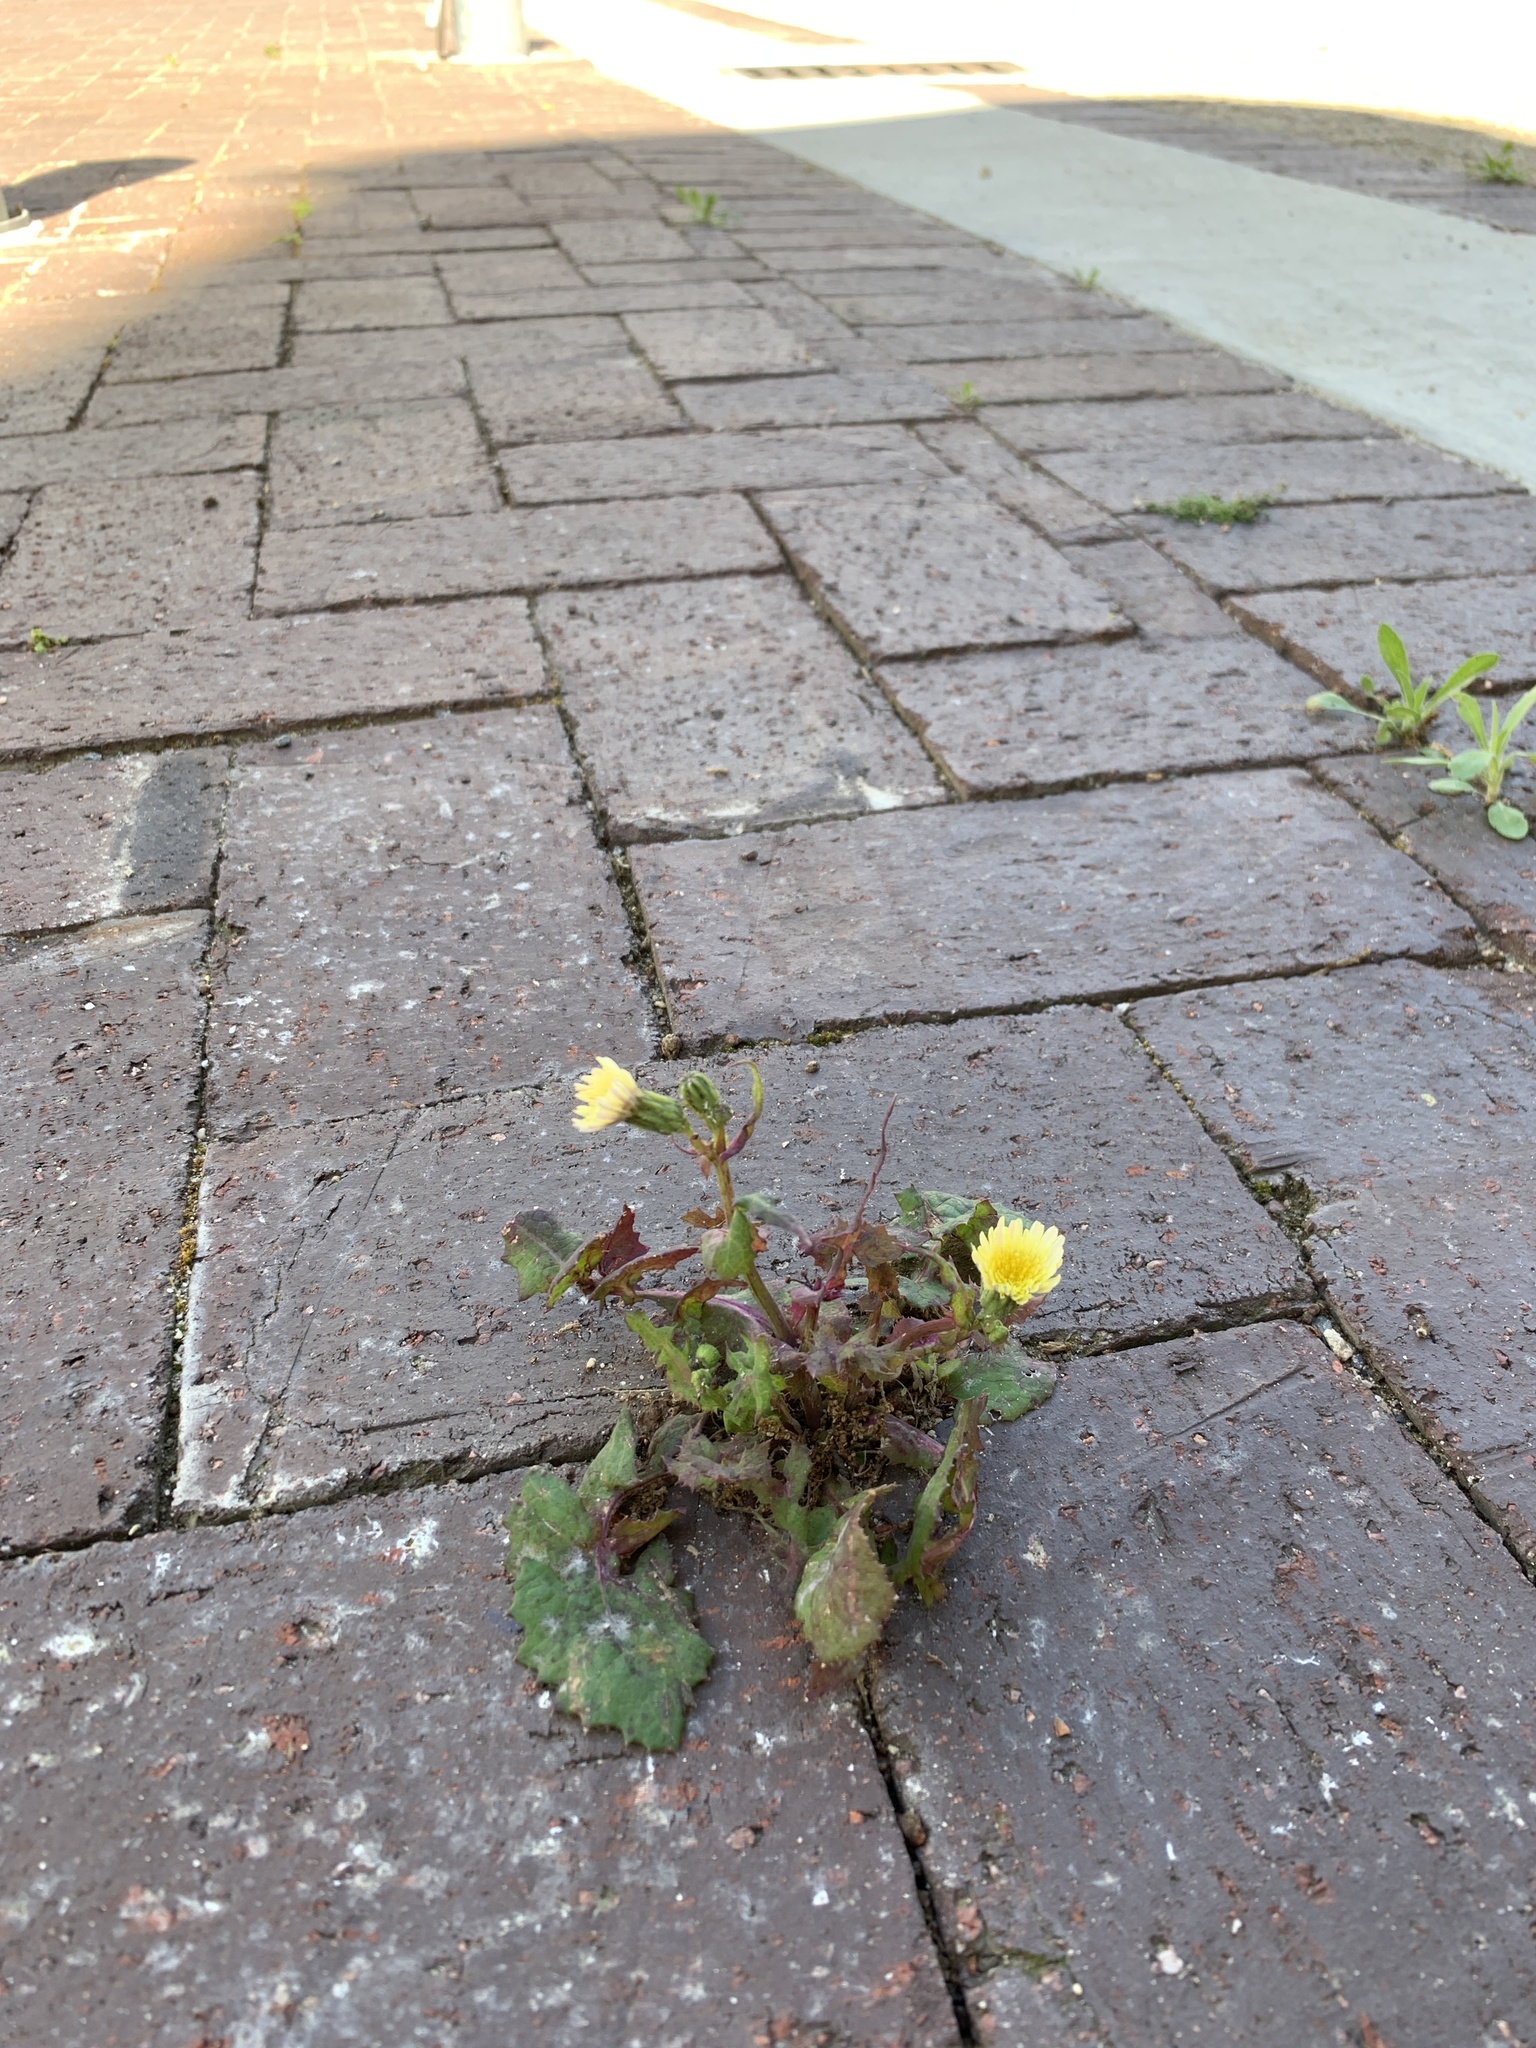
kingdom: Plantae
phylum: Tracheophyta
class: Magnoliopsida
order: Asterales
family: Asteraceae
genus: Sonchus
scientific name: Sonchus oleraceus
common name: Common sowthistle
